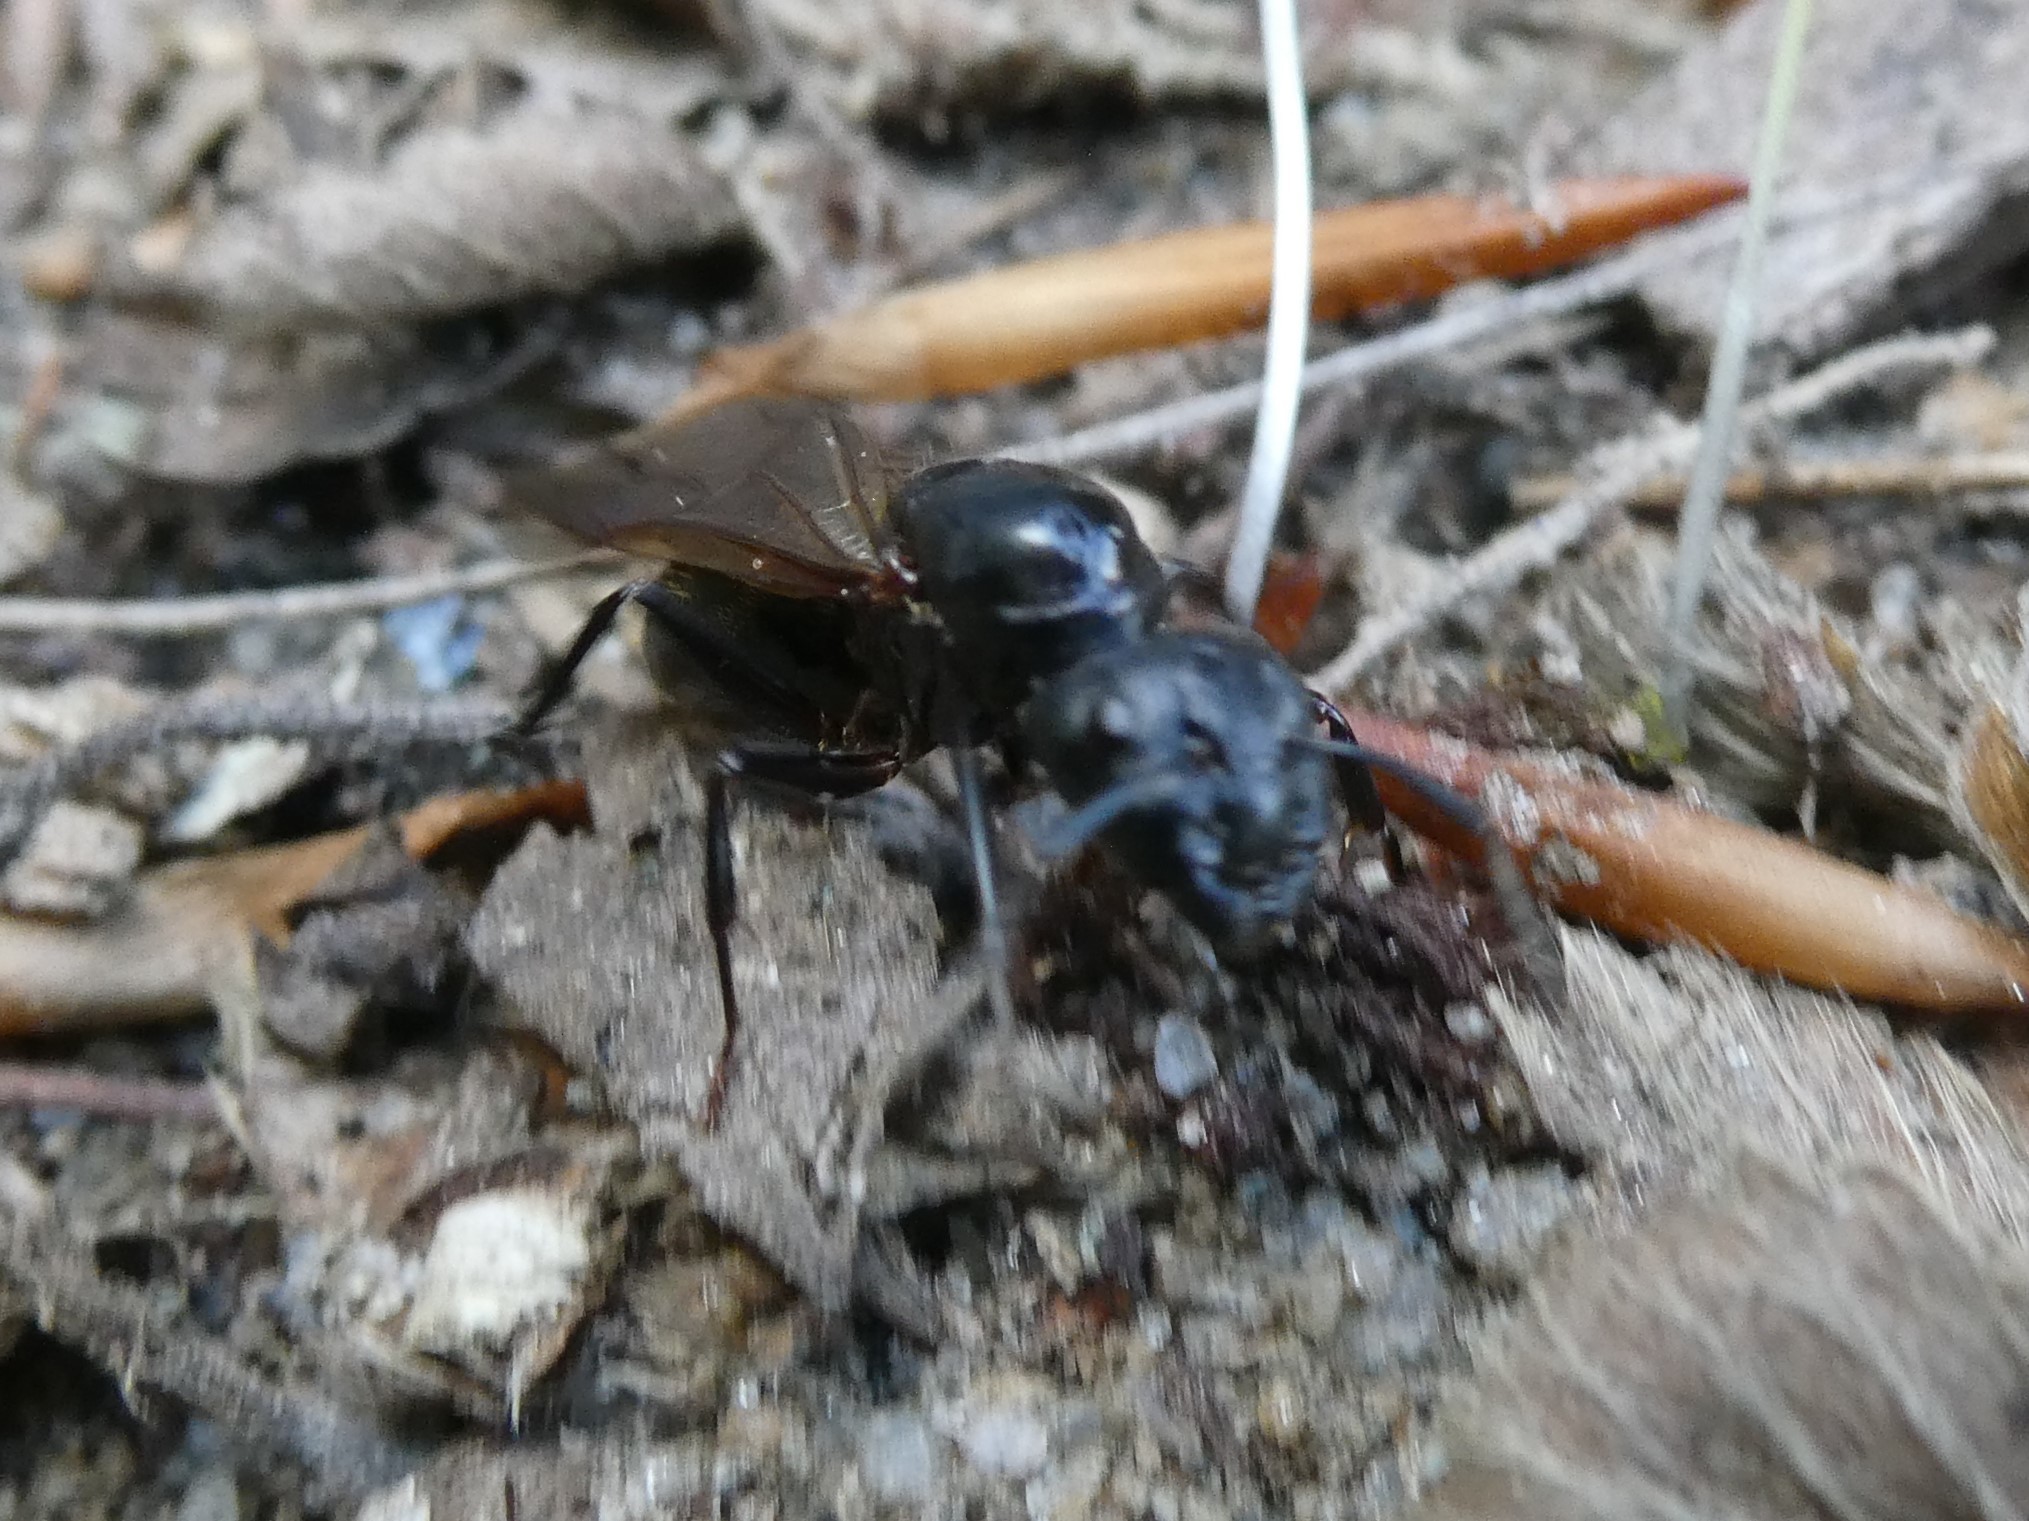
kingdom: Animalia
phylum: Arthropoda
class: Insecta
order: Hymenoptera
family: Formicidae
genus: Camponotus
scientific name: Camponotus pennsylvanicus
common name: Black carpenter ant
